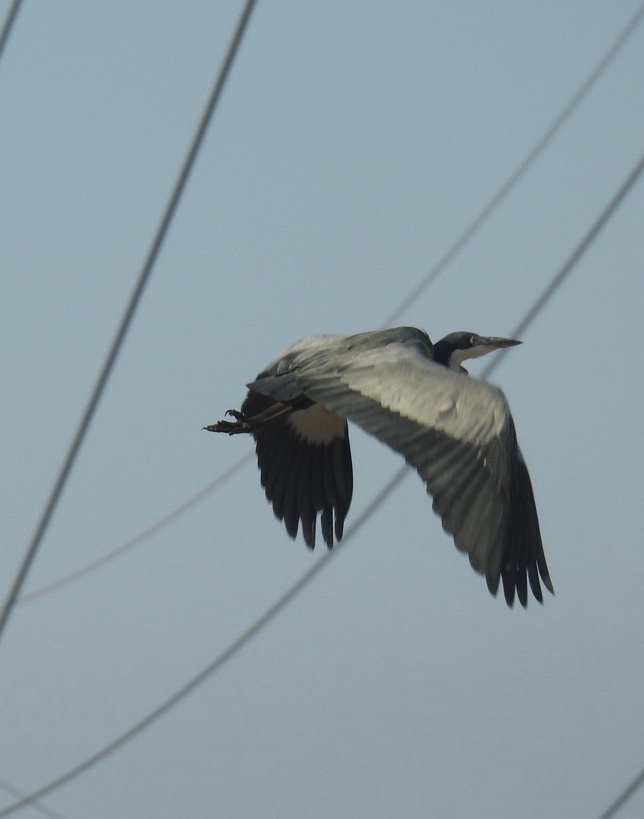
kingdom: Animalia
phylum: Chordata
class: Aves
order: Pelecaniformes
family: Ardeidae
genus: Ardea
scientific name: Ardea melanocephala
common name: Black-headed heron
